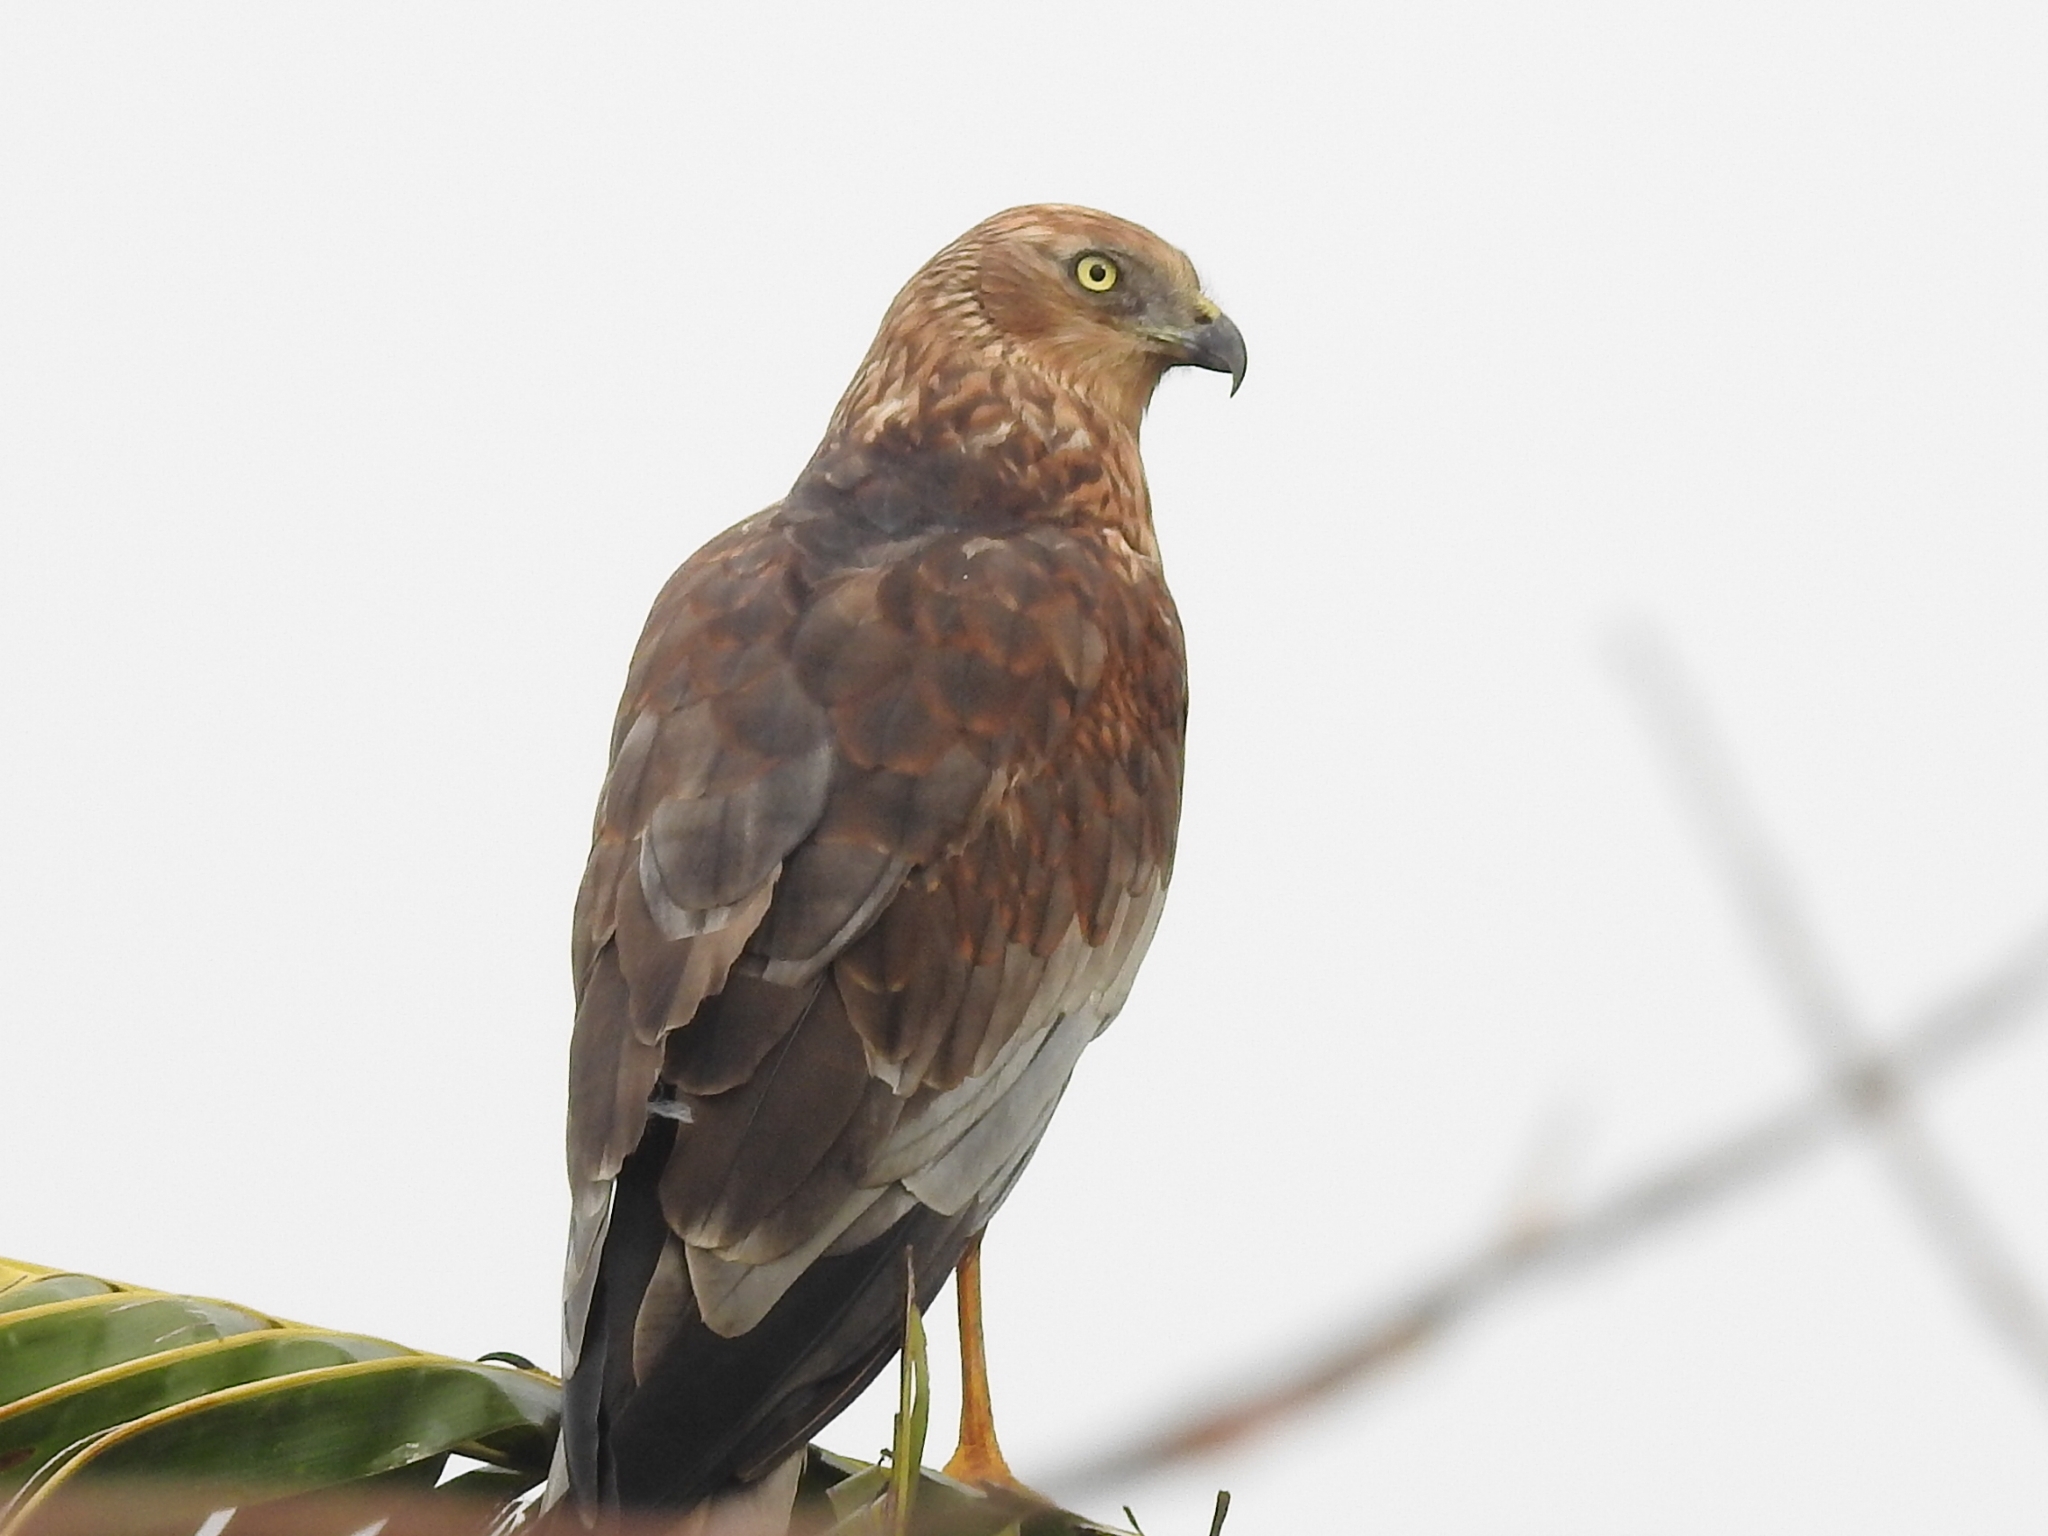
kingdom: Animalia
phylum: Chordata
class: Aves
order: Accipitriformes
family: Accipitridae
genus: Circus
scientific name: Circus aeruginosus
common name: Western marsh harrier
